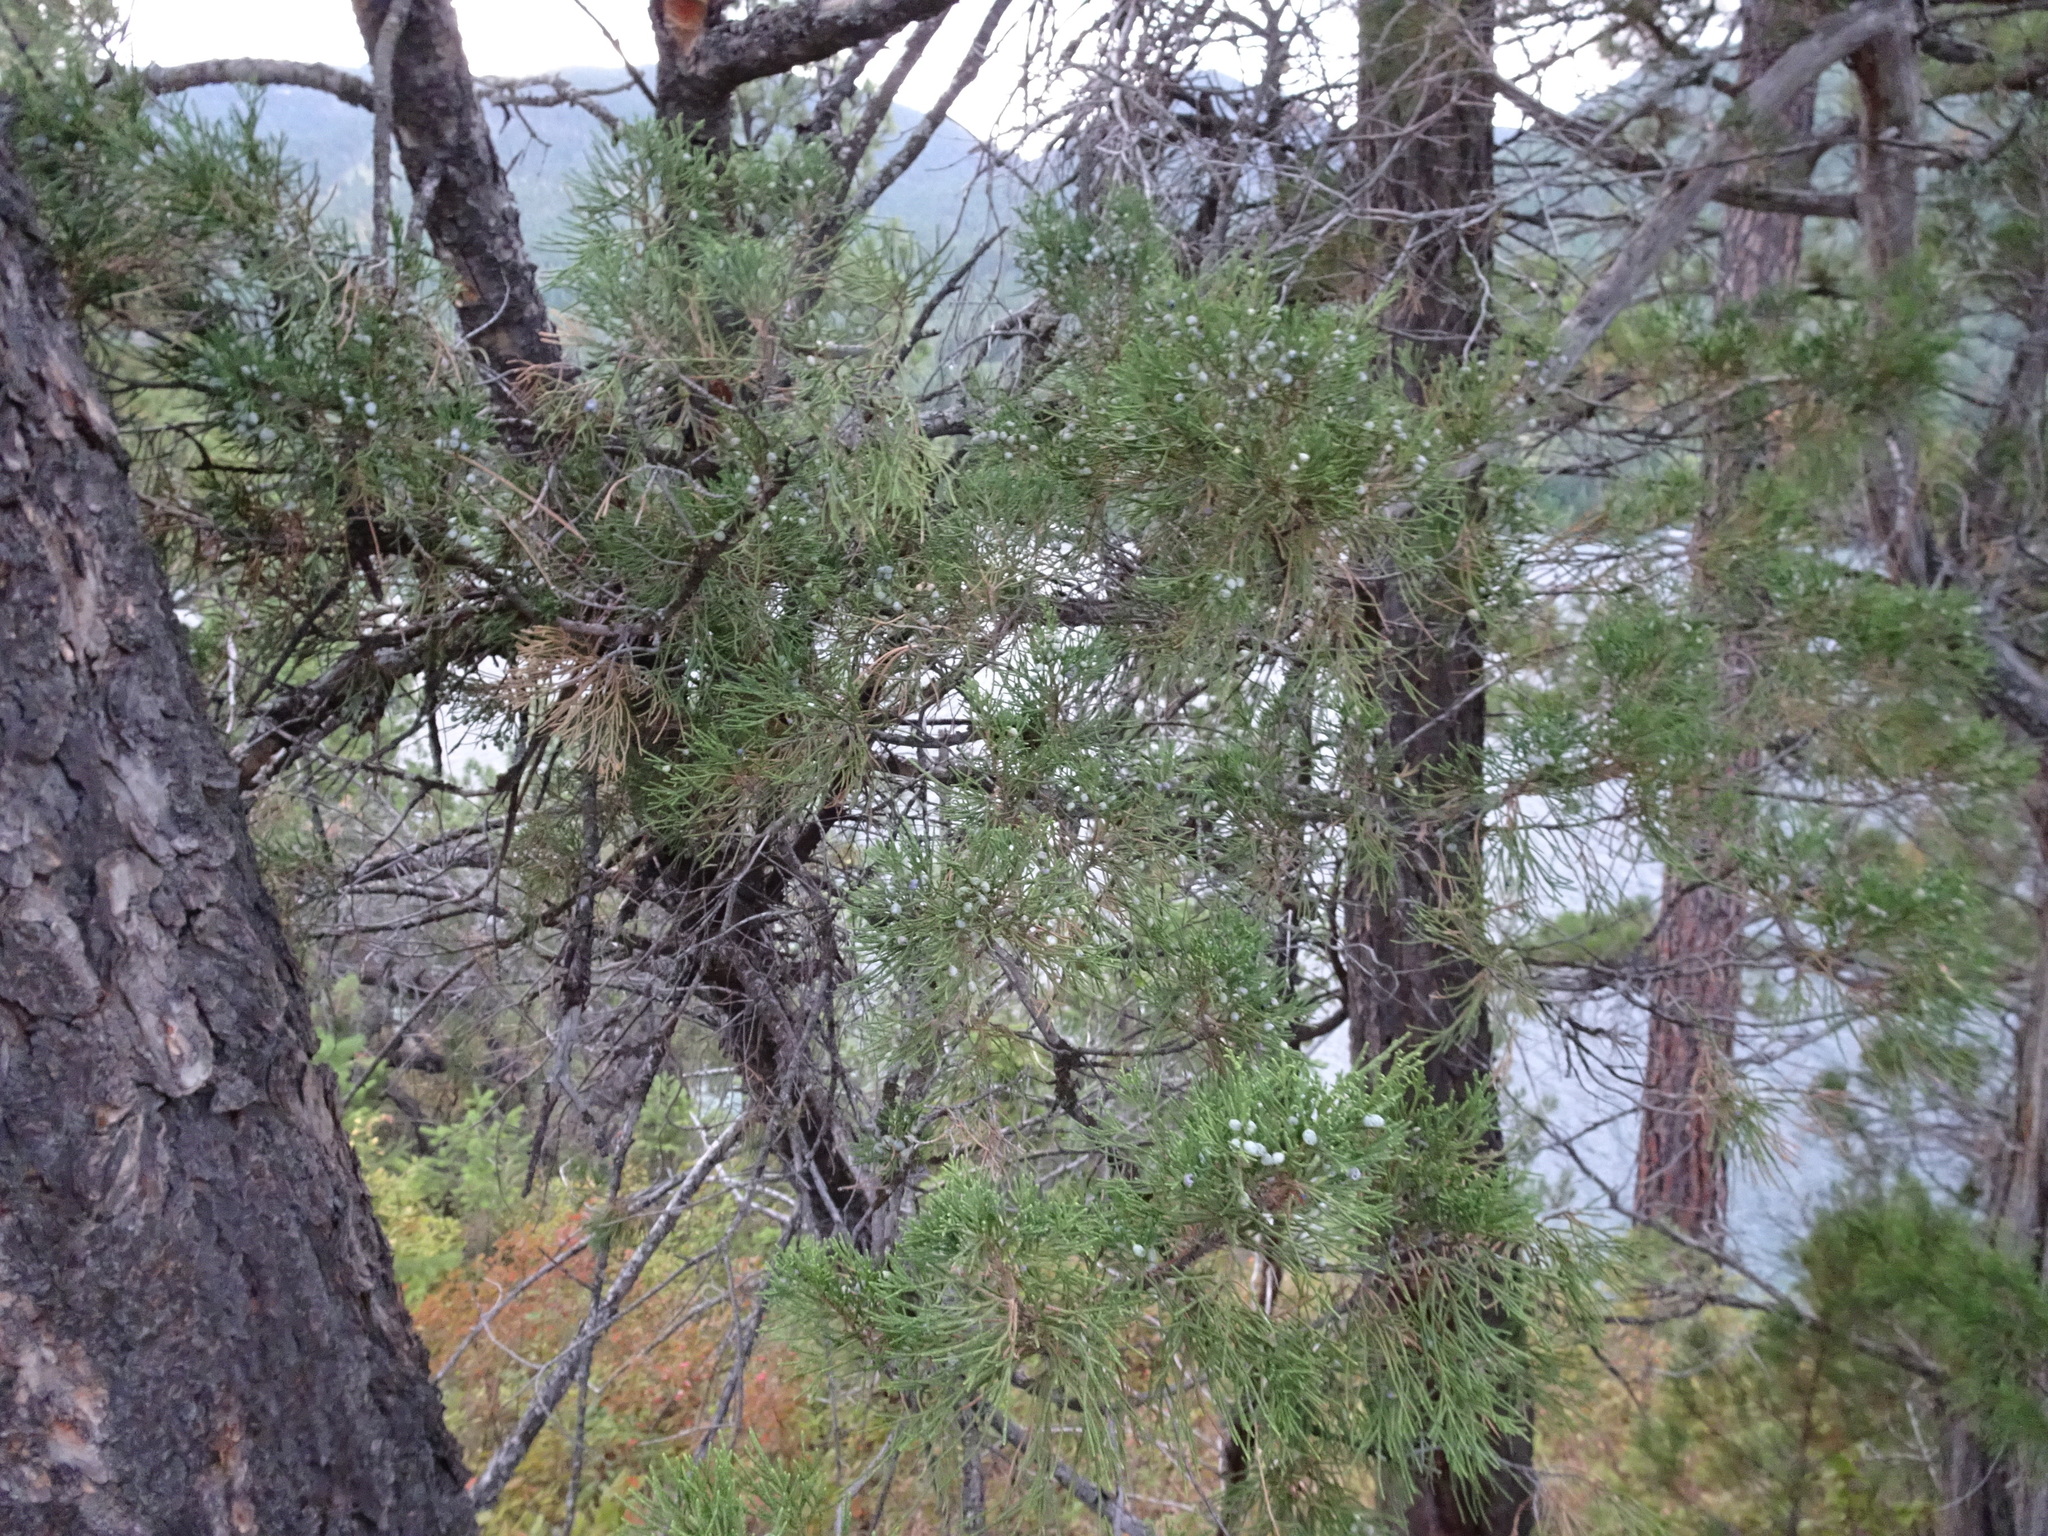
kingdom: Plantae
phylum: Tracheophyta
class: Pinopsida
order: Pinales
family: Cupressaceae
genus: Juniperus
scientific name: Juniperus scopulorum
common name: Rocky mountain juniper
